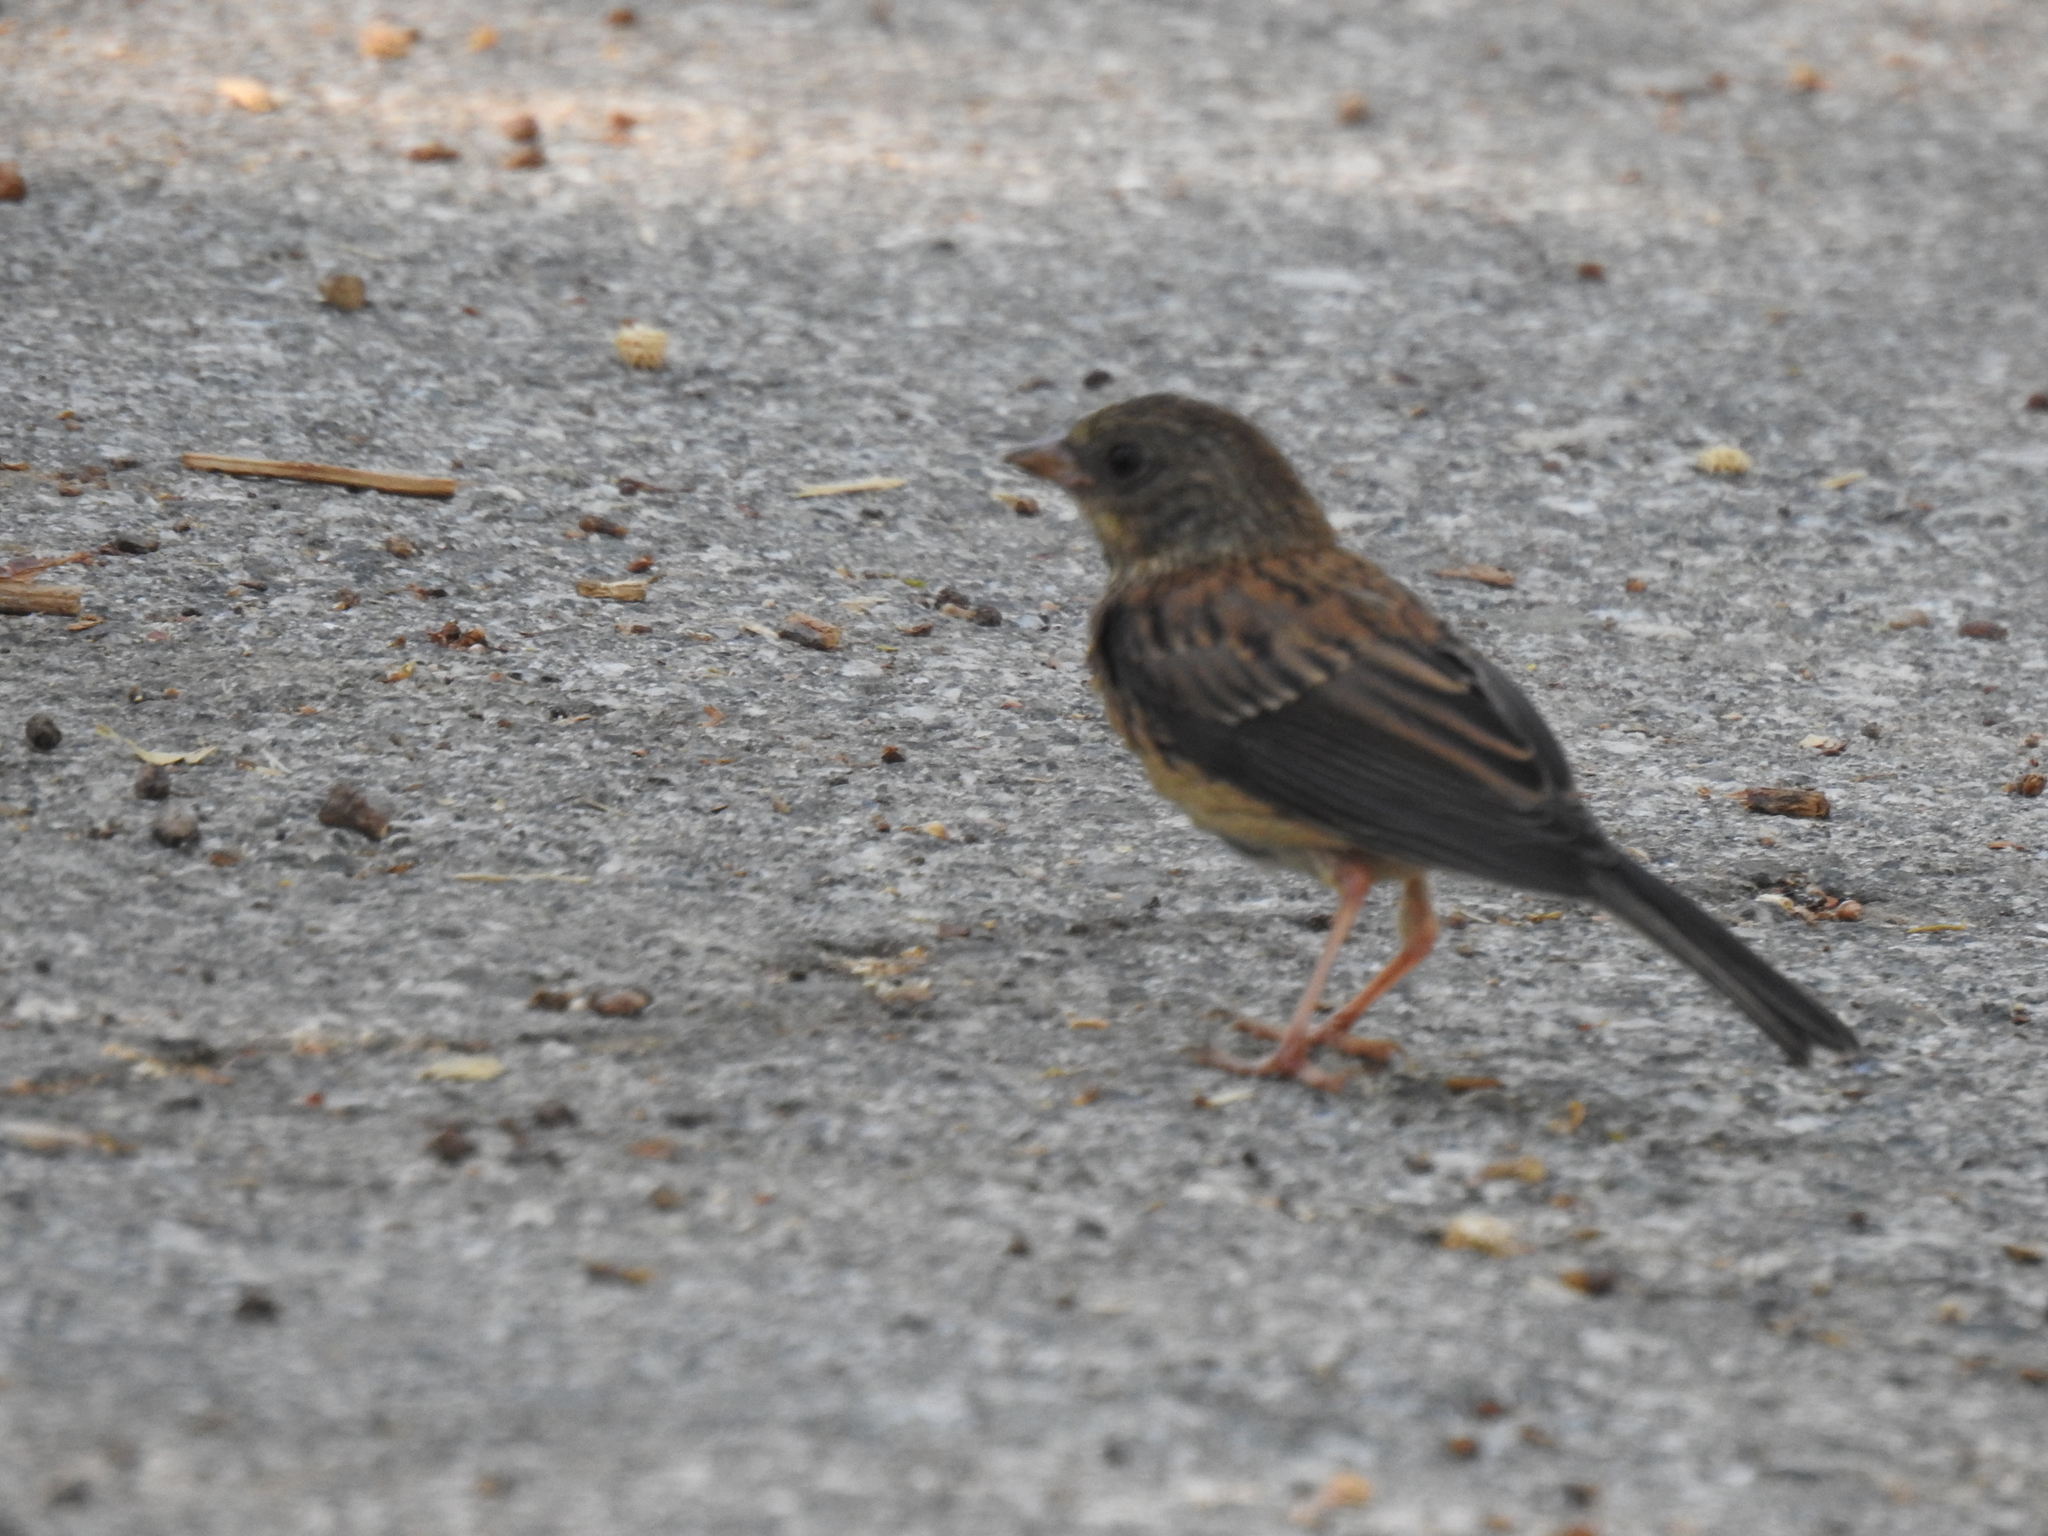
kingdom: Animalia
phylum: Chordata
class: Aves
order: Passeriformes
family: Passerellidae
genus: Junco
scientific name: Junco hyemalis
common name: Dark-eyed junco
